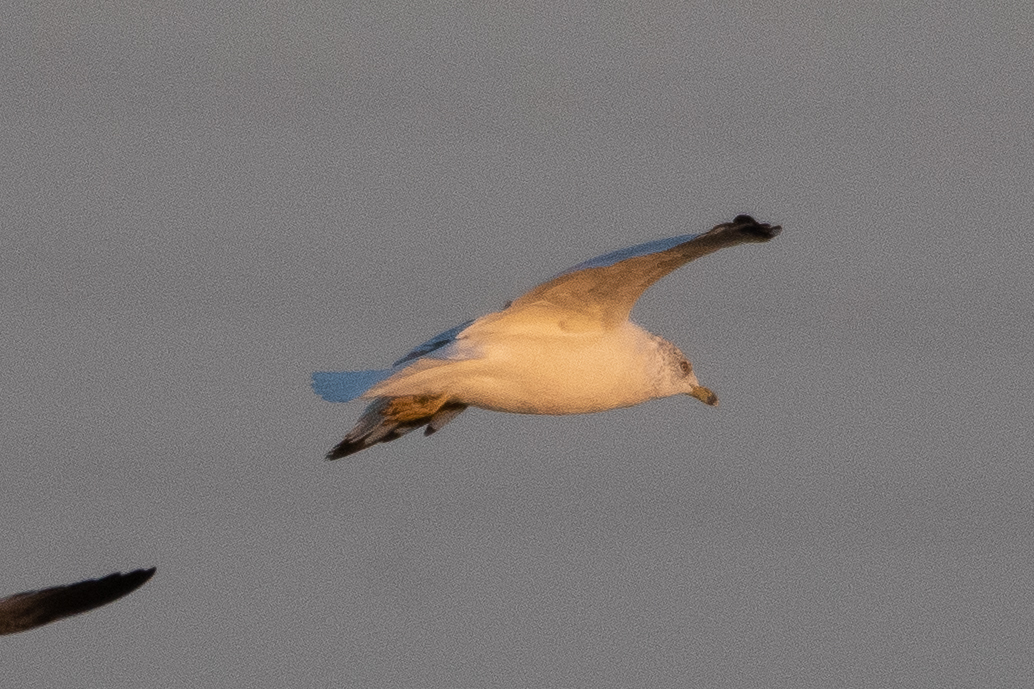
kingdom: Animalia
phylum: Chordata
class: Aves
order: Charadriiformes
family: Laridae
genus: Larus
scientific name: Larus delawarensis
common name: Ring-billed gull
